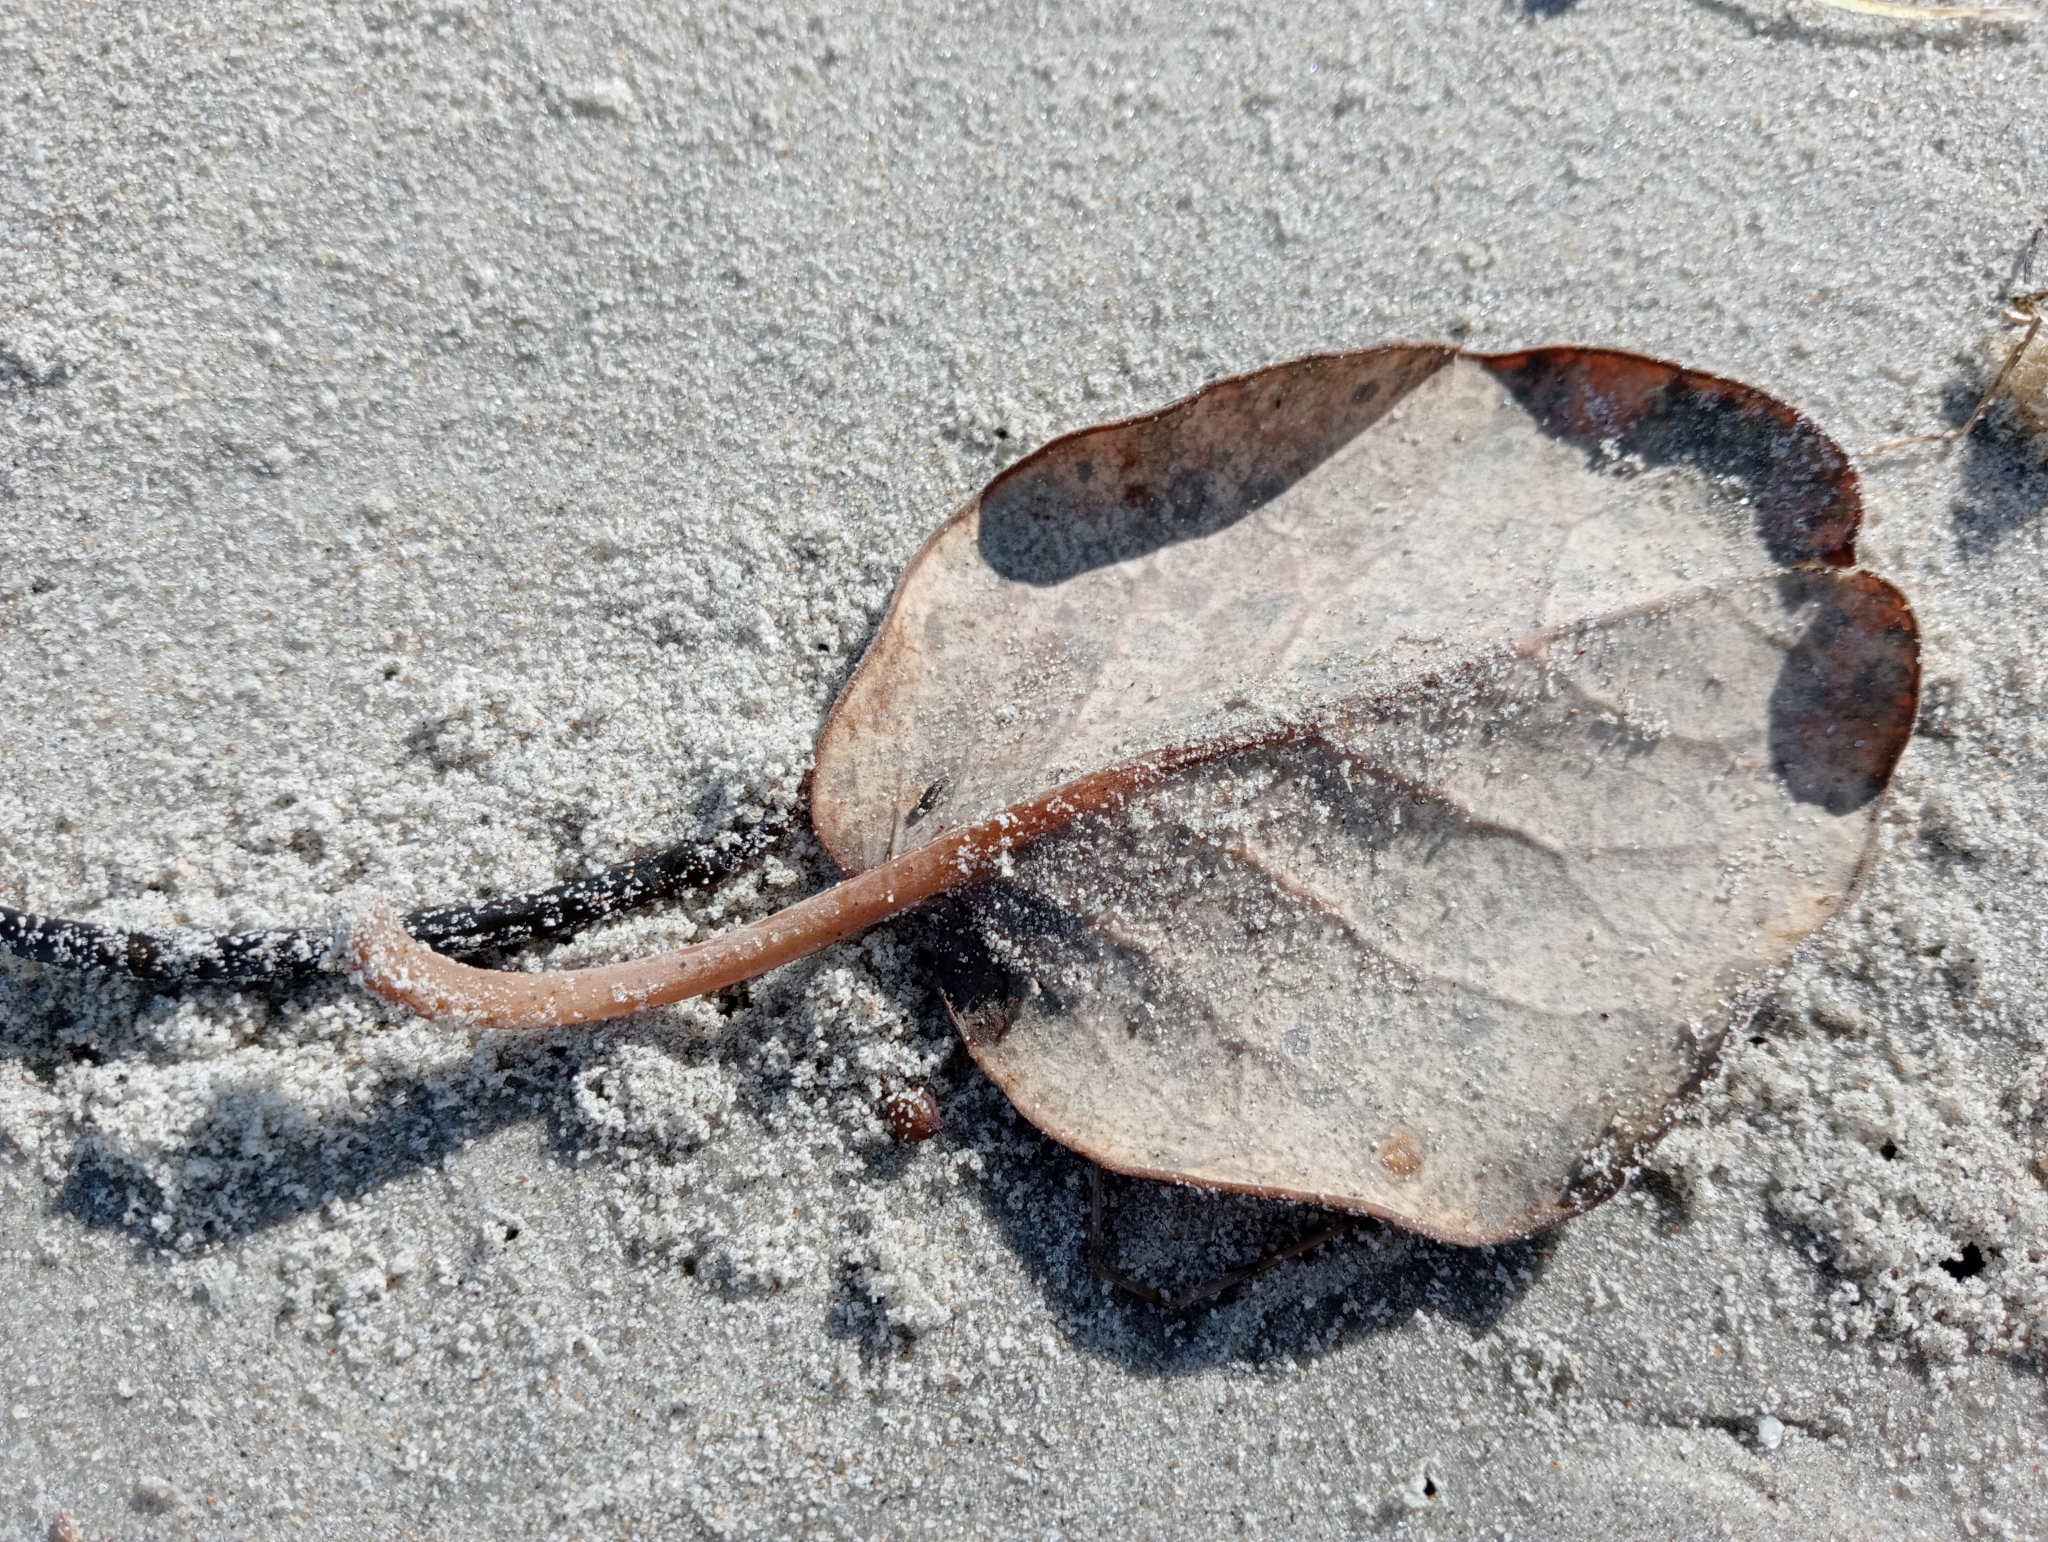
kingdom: Plantae
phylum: Tracheophyta
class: Magnoliopsida
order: Asterales
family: Asteraceae
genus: Brachyglottis
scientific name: Brachyglottis rotundifolia
